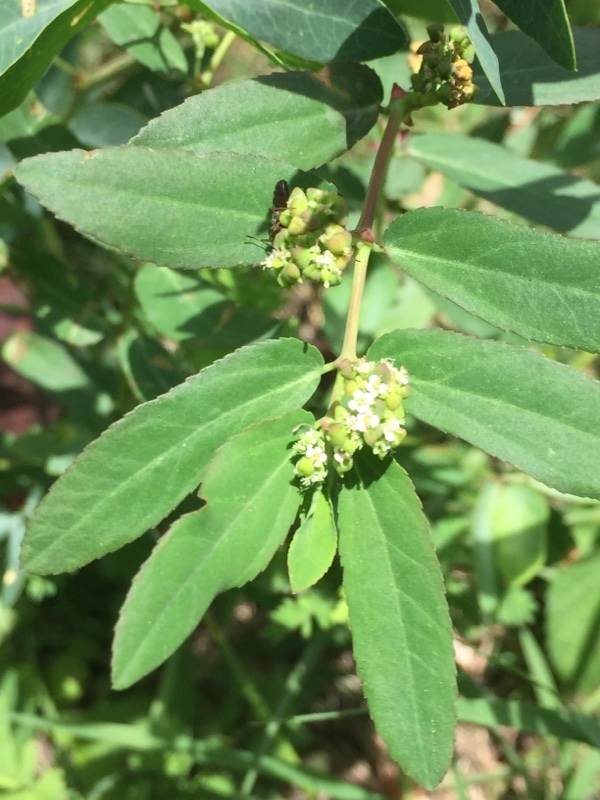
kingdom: Plantae
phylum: Tracheophyta
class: Magnoliopsida
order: Malpighiales
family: Euphorbiaceae
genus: Euphorbia
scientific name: Euphorbia hypericifolia
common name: Graceful sandmat
